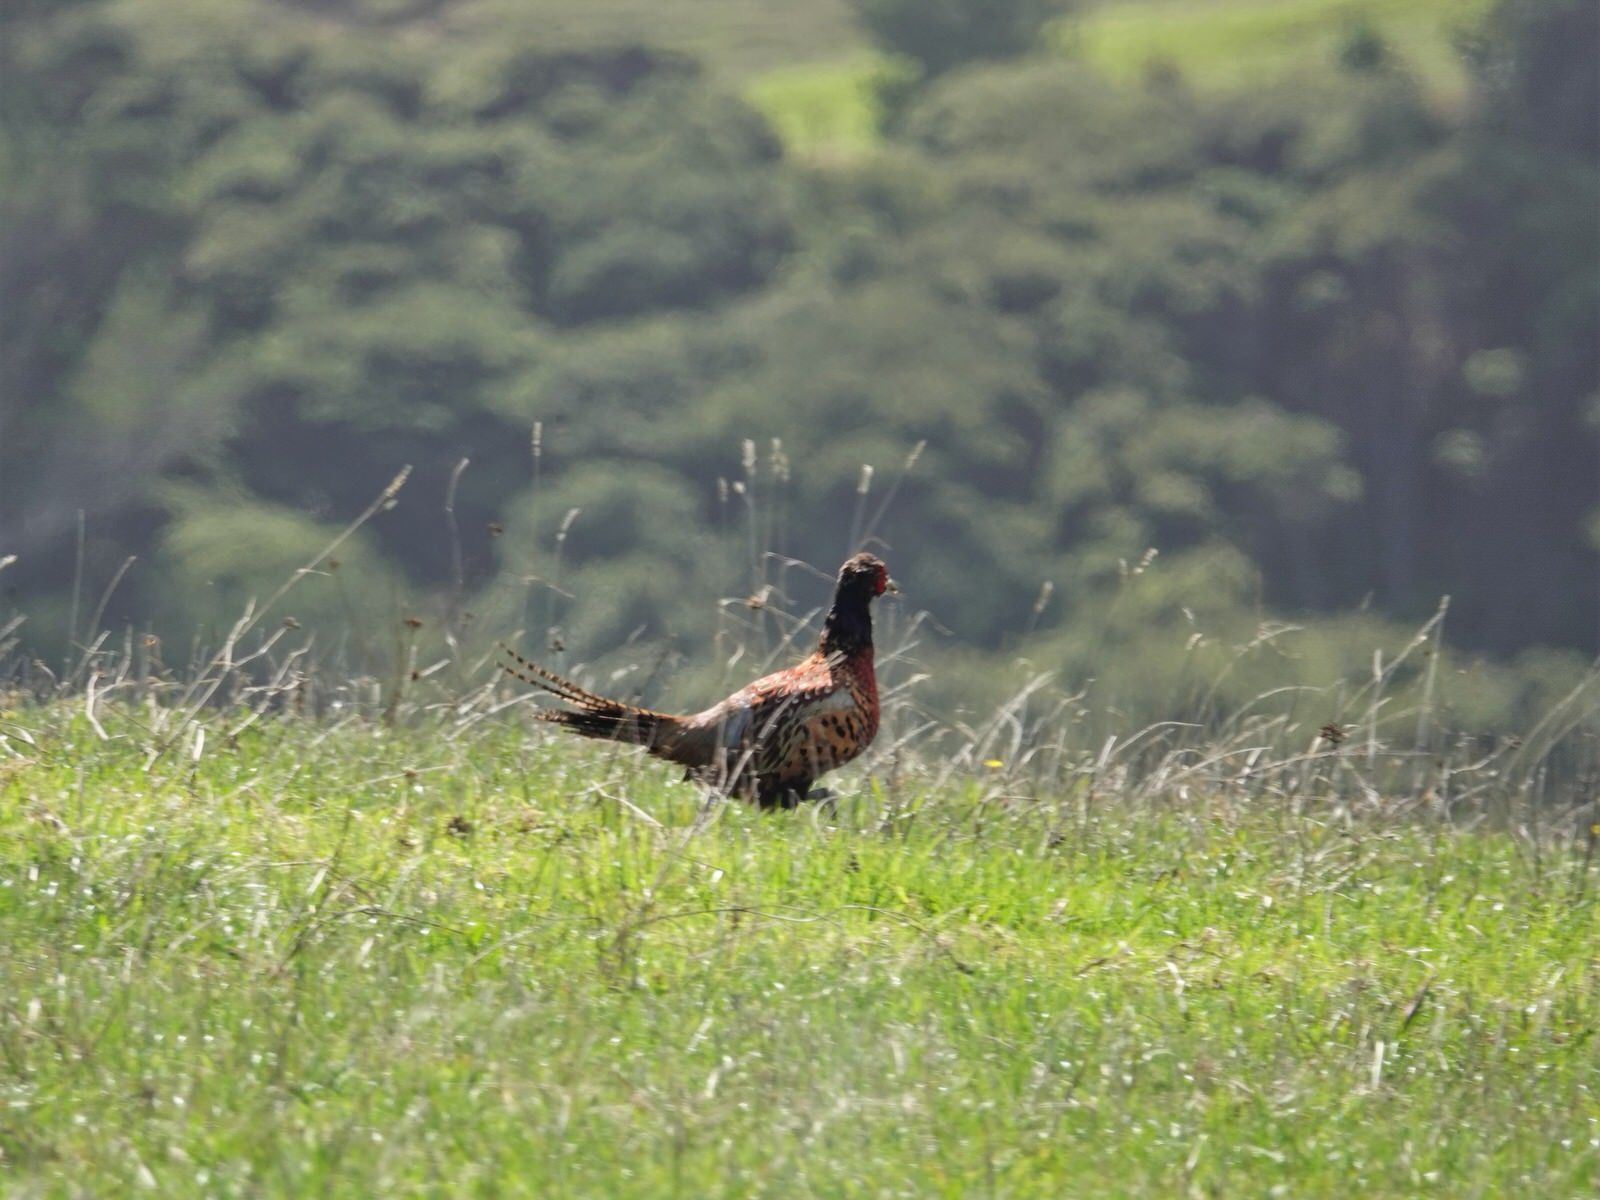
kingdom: Animalia
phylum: Chordata
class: Aves
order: Galliformes
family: Phasianidae
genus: Phasianus
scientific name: Phasianus colchicus
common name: Common pheasant
